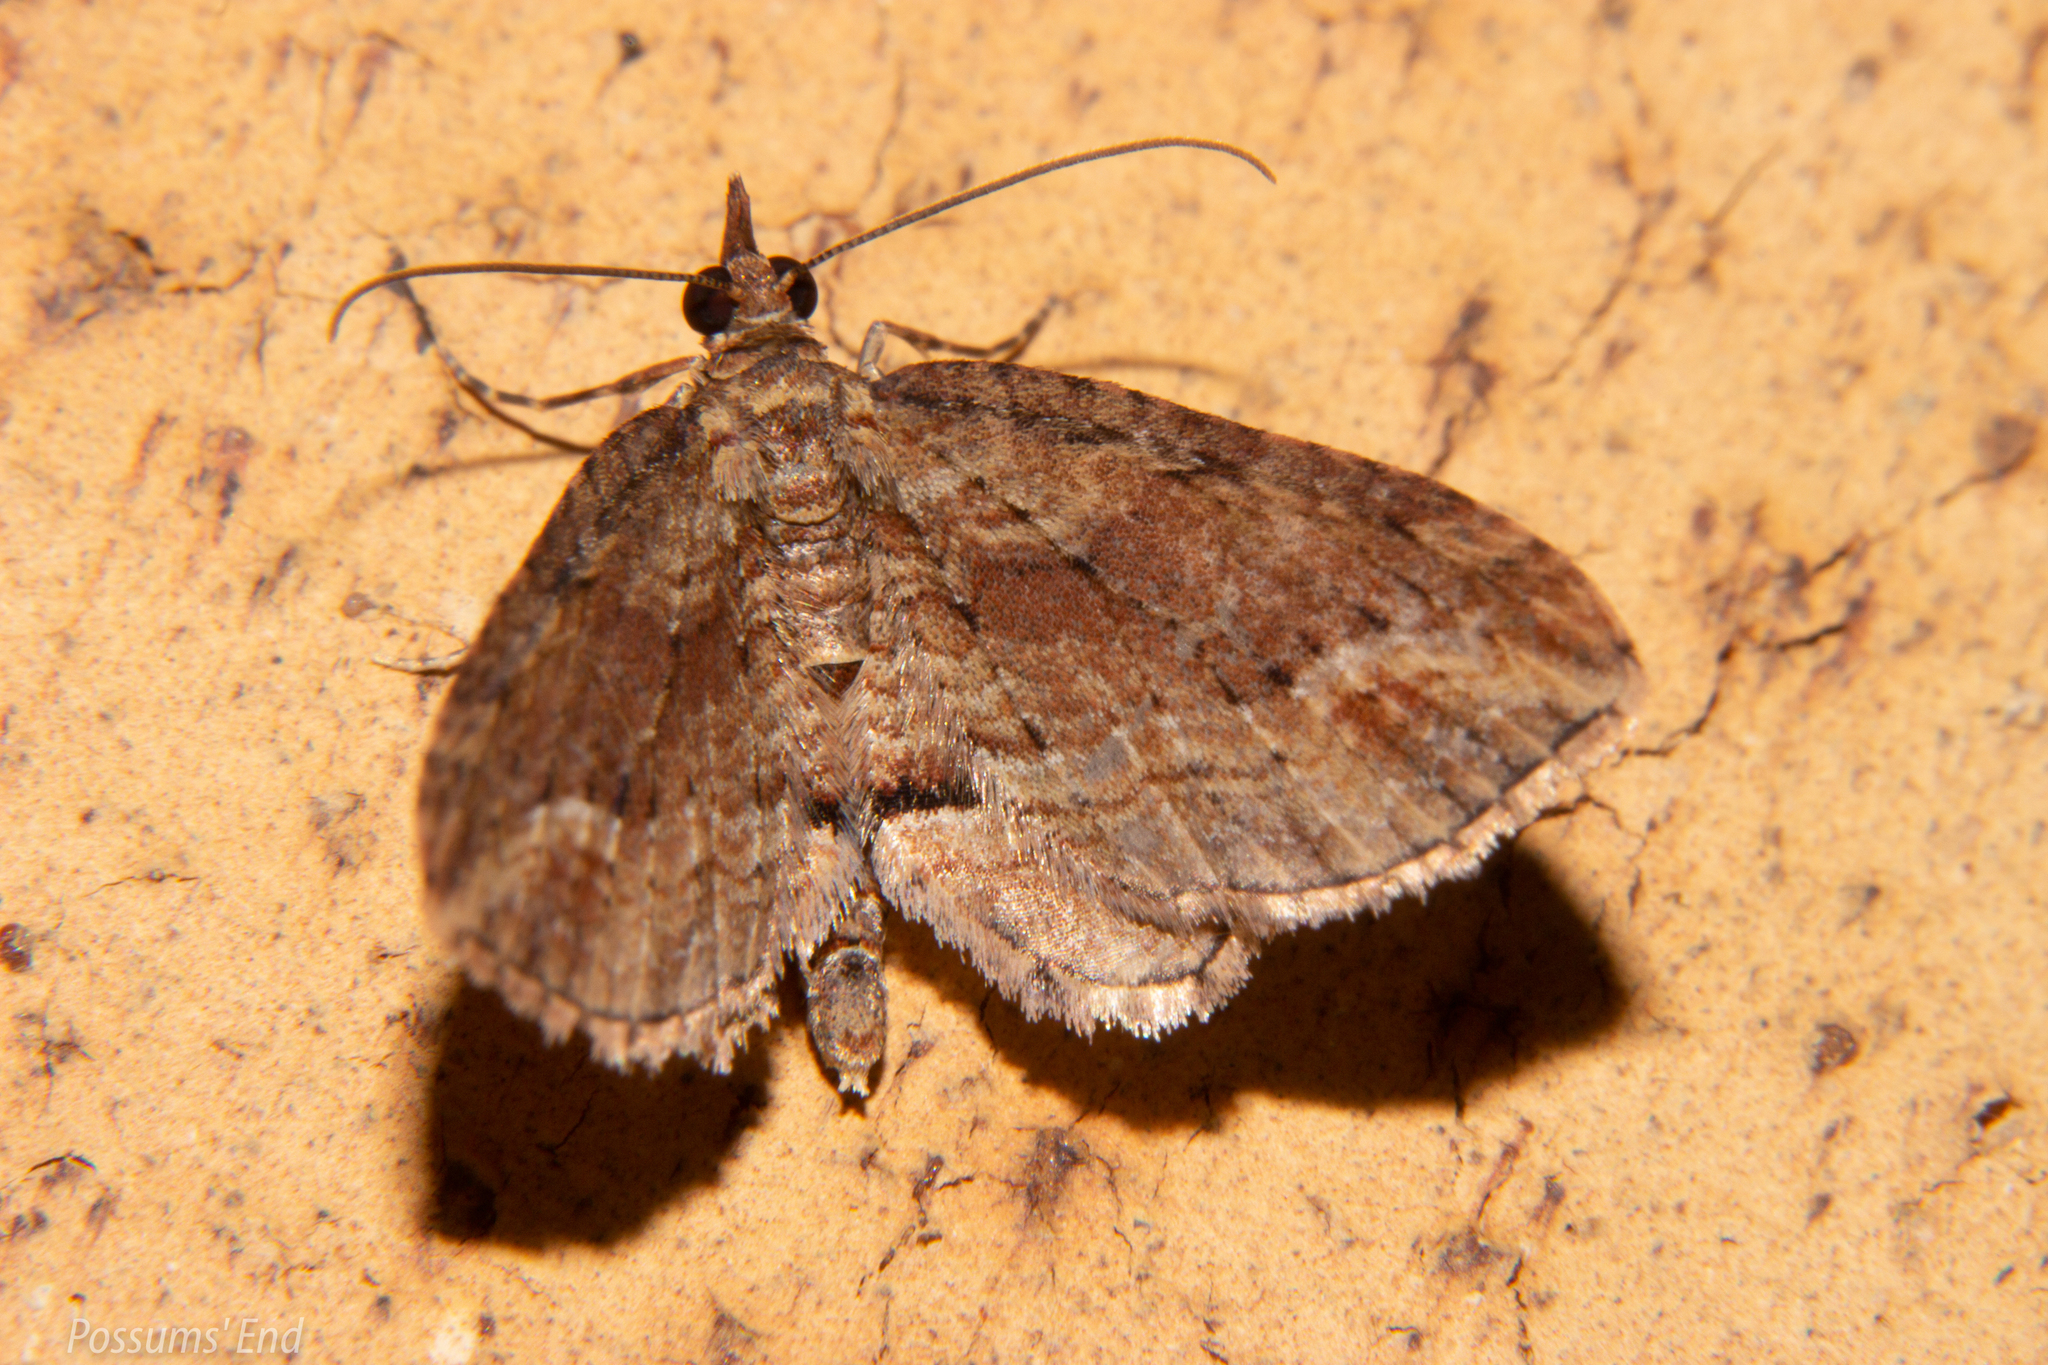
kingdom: Animalia
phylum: Arthropoda
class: Insecta
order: Lepidoptera
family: Geometridae
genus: Chloroclystis
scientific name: Chloroclystis filata
